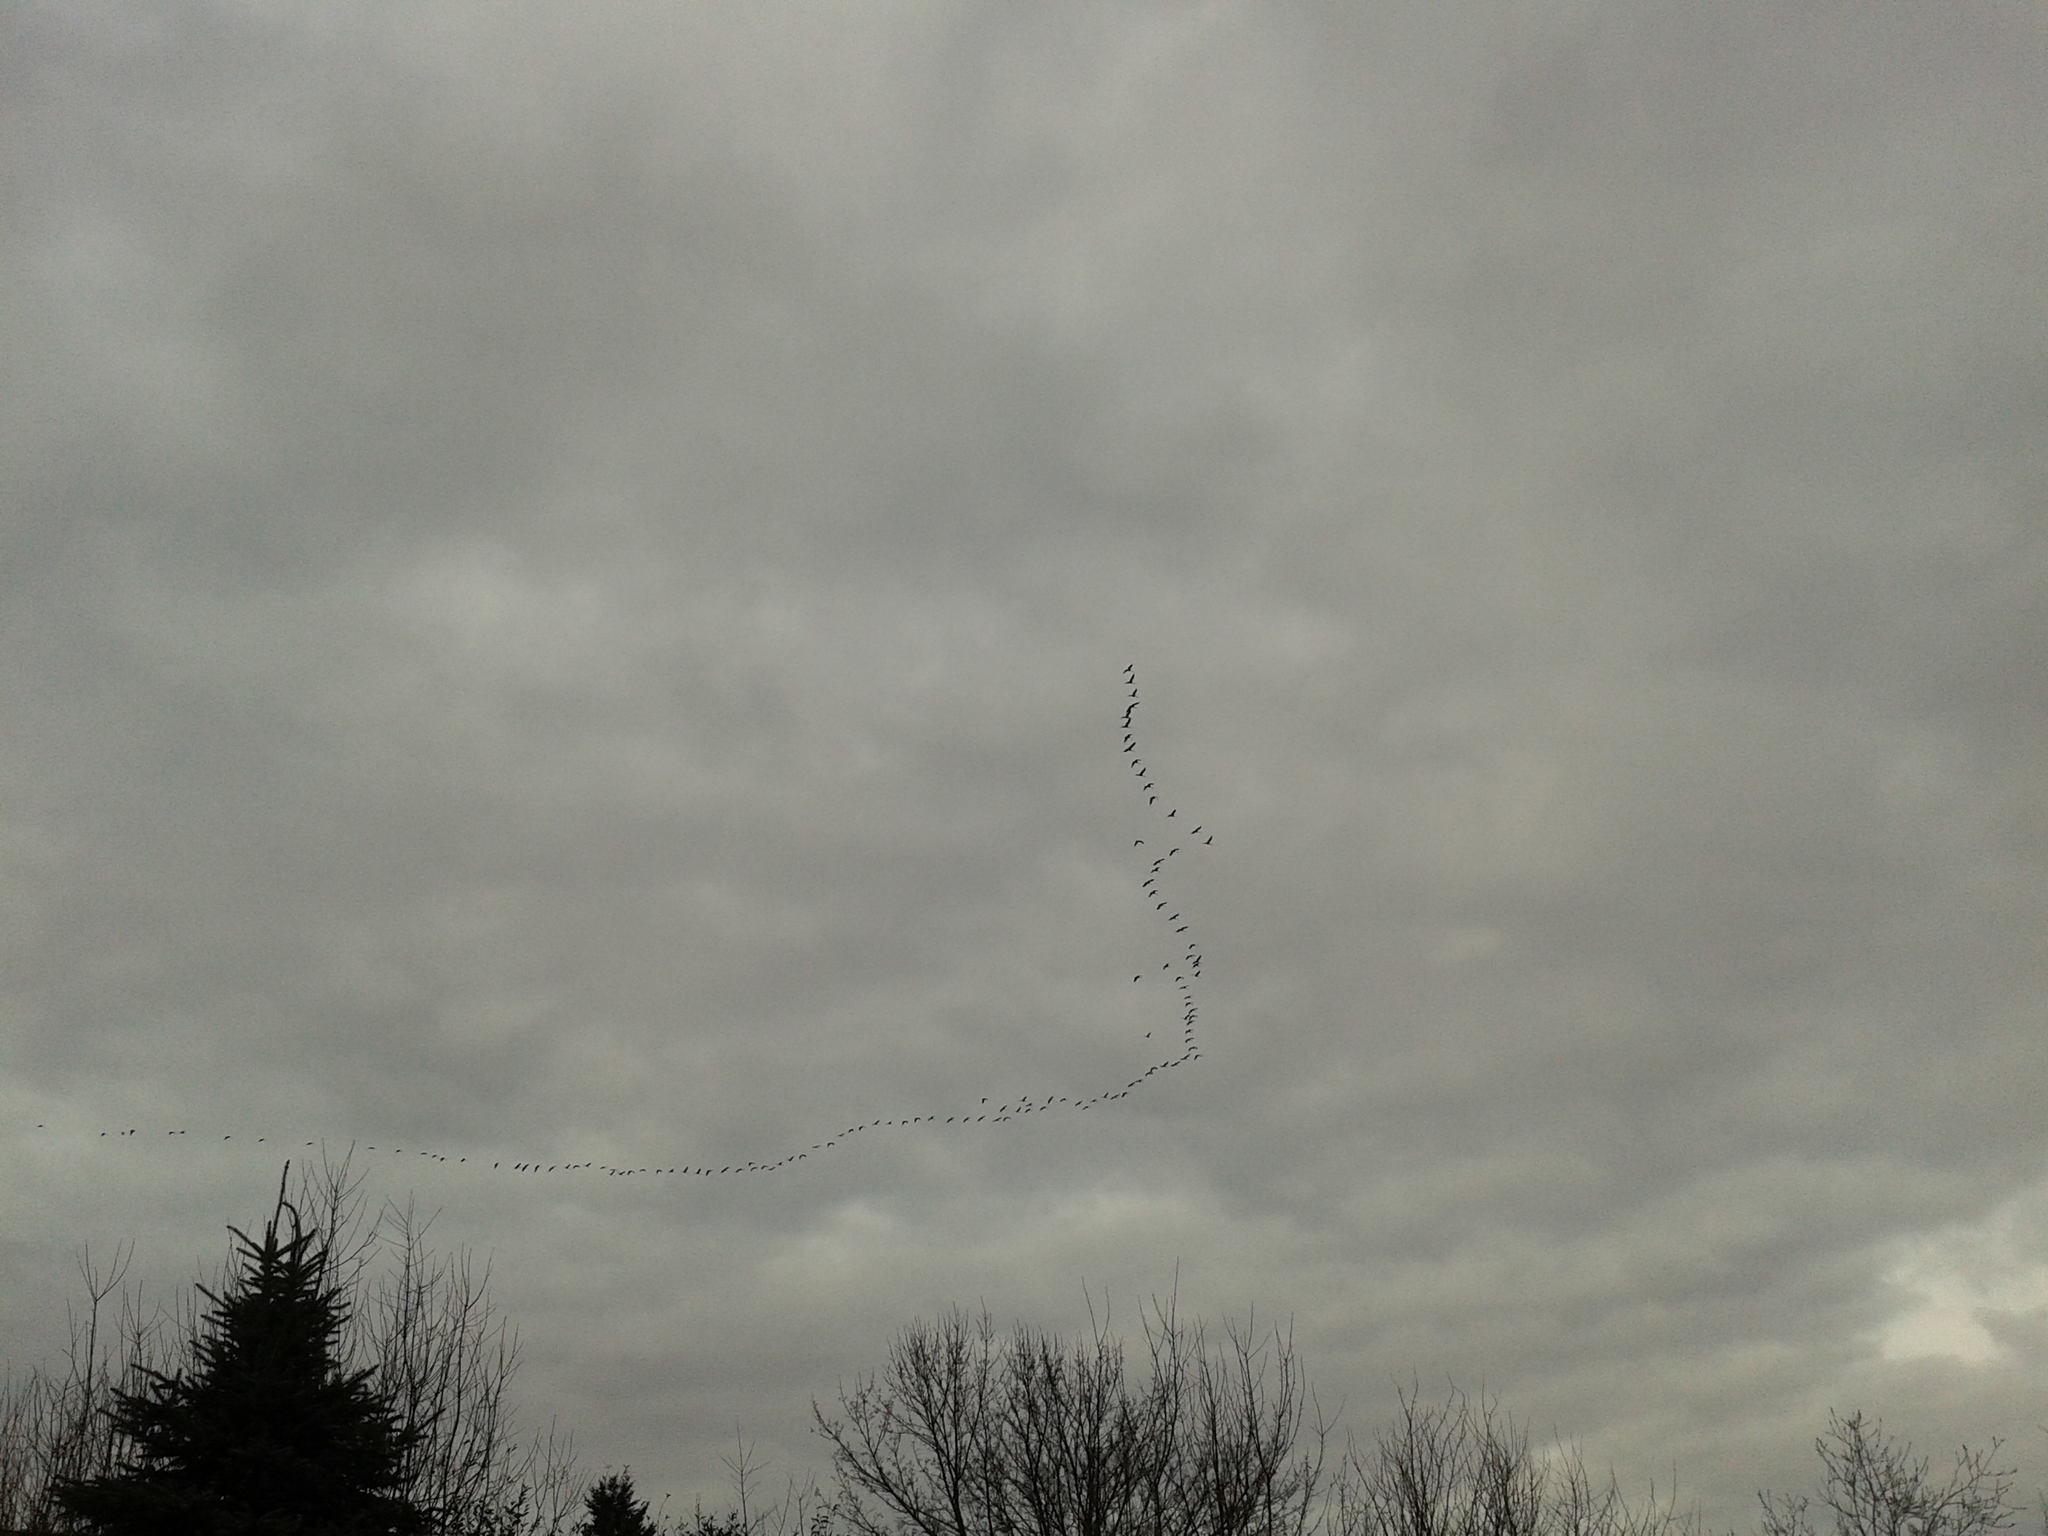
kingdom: Animalia
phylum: Chordata
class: Aves
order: Gruiformes
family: Gruidae
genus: Grus
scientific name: Grus grus
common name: Common crane
